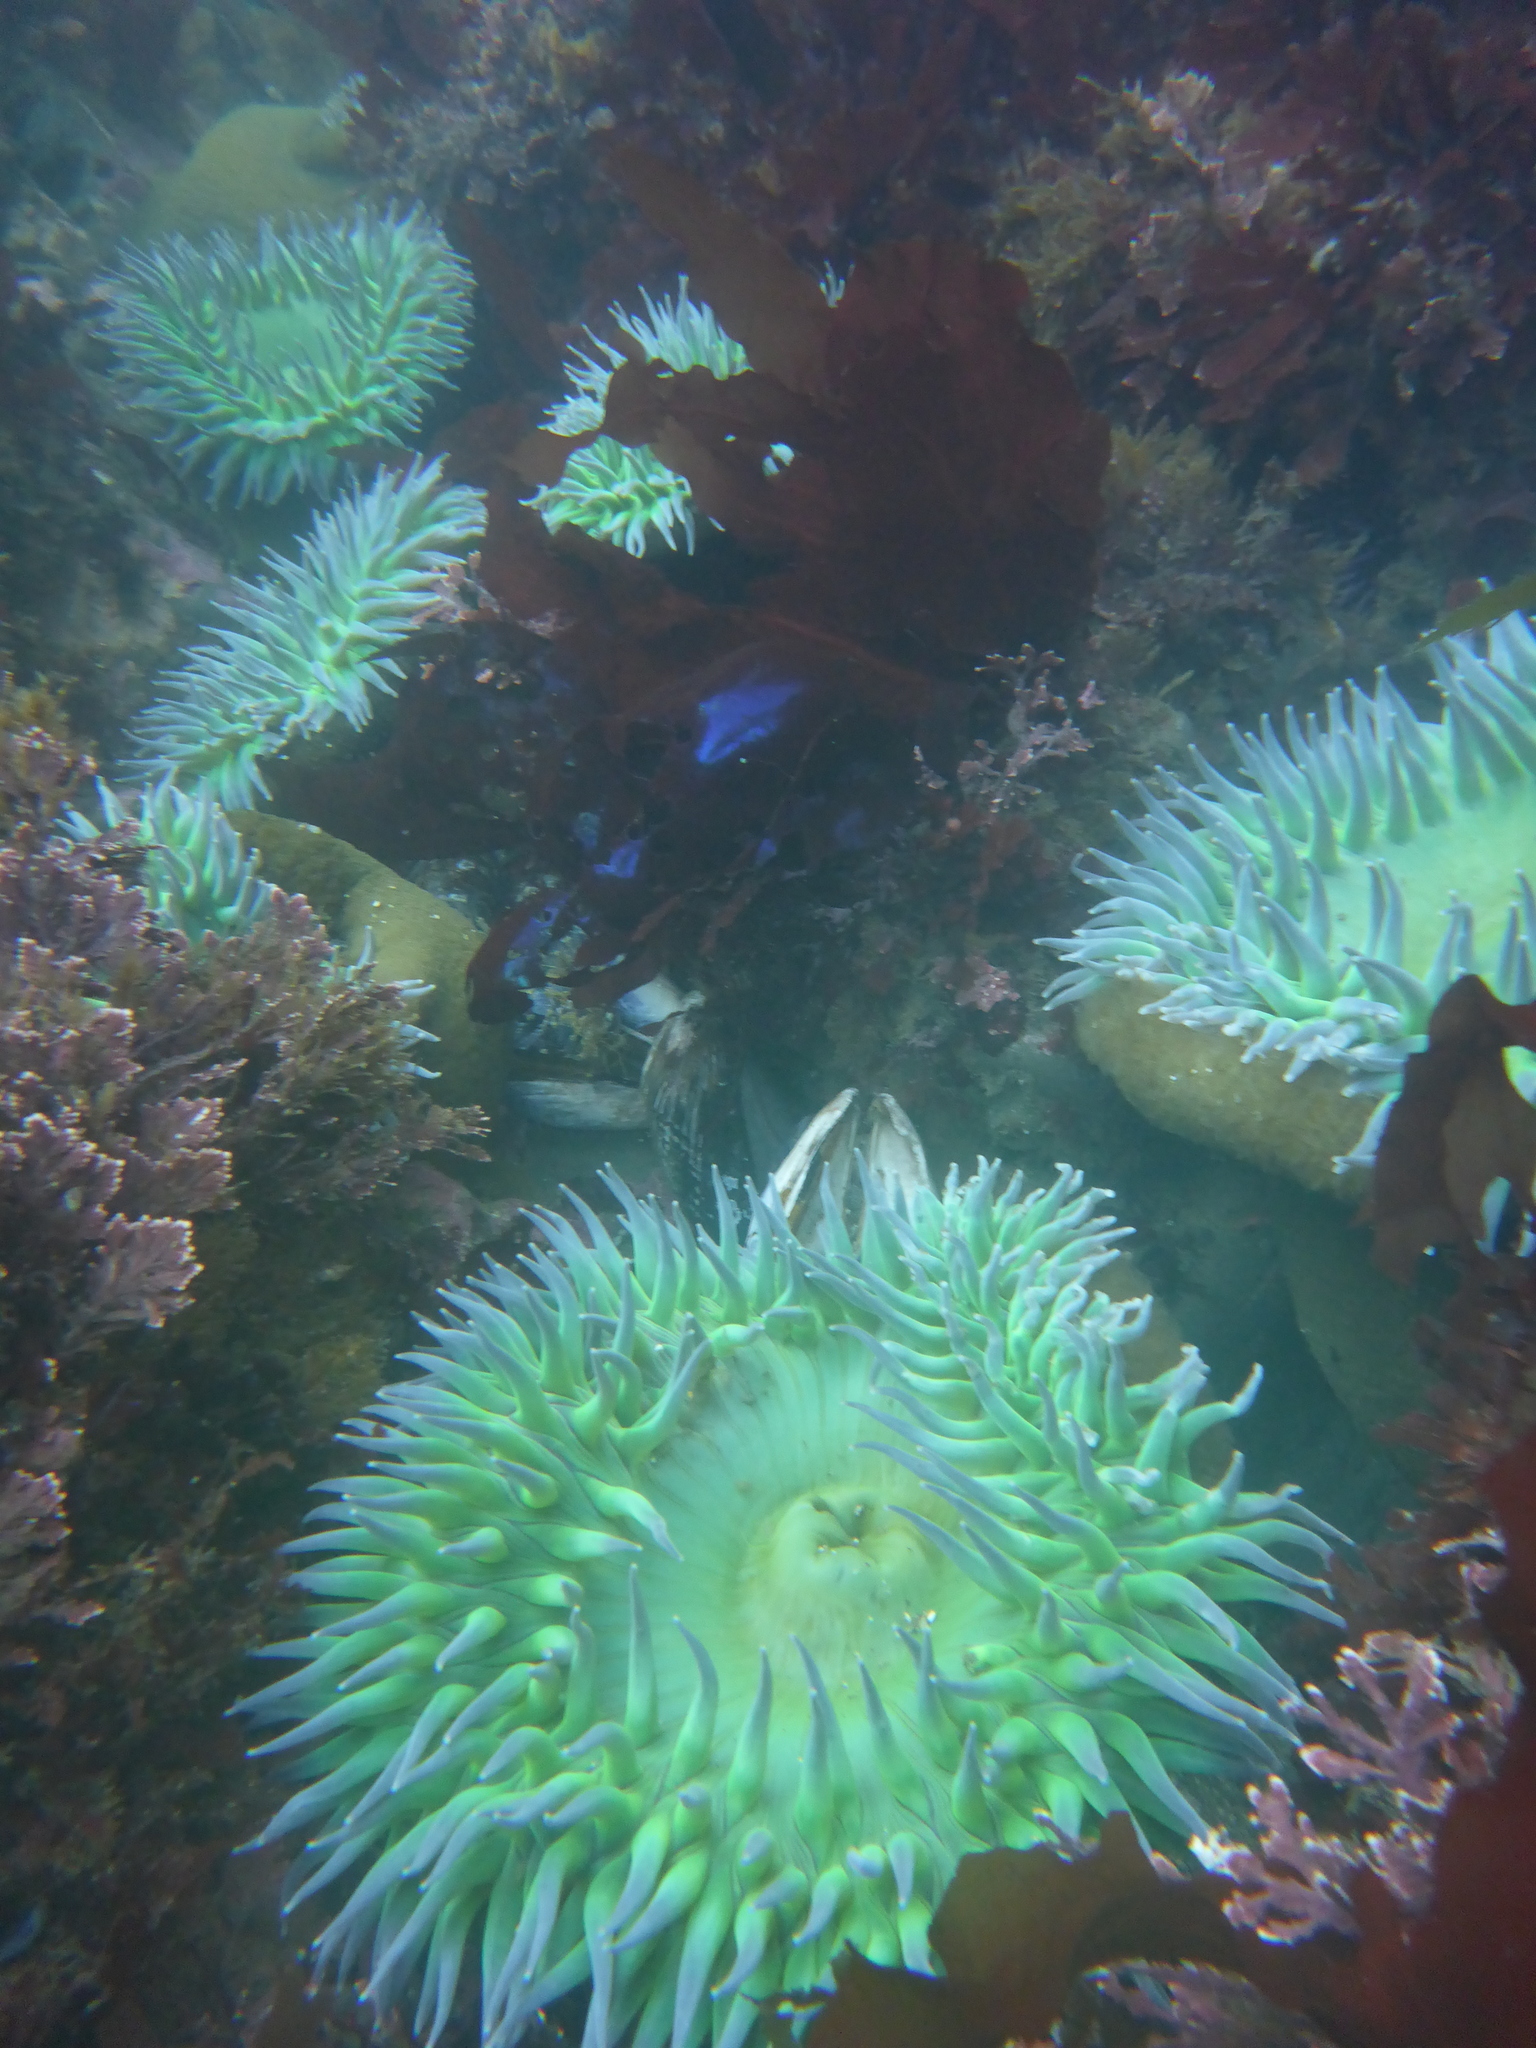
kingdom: Animalia
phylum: Cnidaria
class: Anthozoa
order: Actiniaria
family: Actiniidae
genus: Anthopleura
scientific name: Anthopleura xanthogrammica
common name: Giant green anemone
